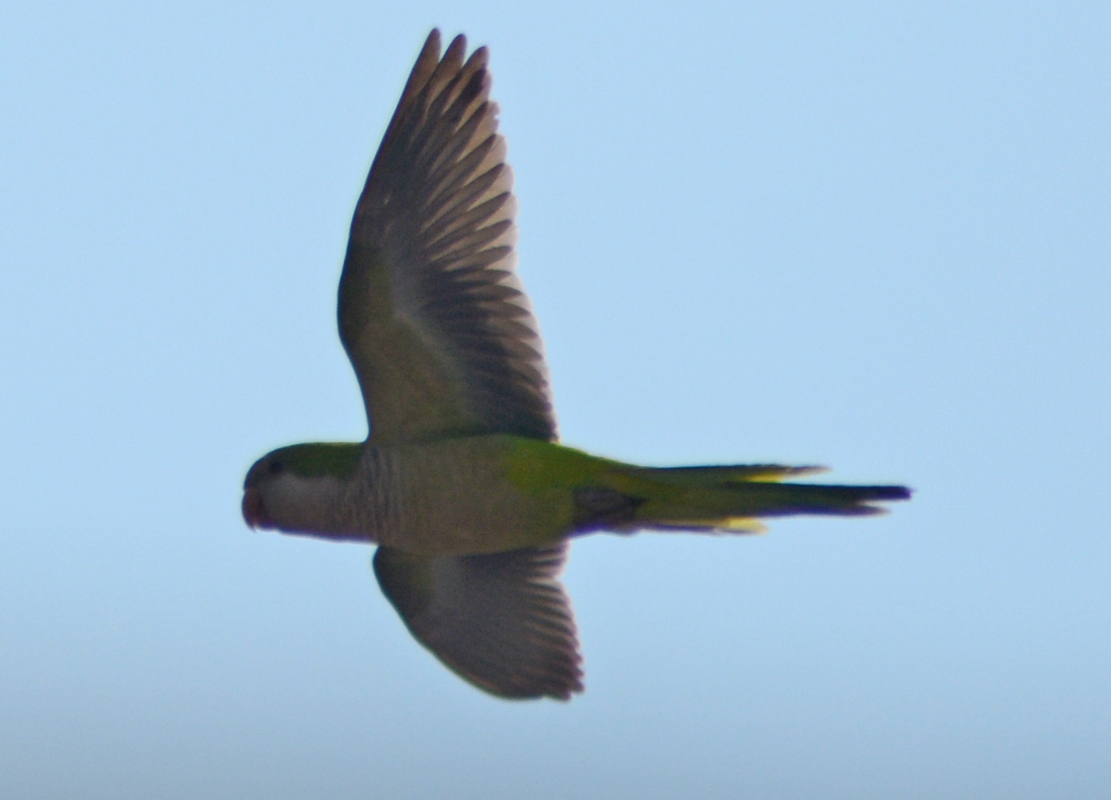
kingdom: Animalia
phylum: Chordata
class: Aves
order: Psittaciformes
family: Psittacidae
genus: Myiopsitta
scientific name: Myiopsitta monachus
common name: Monk parakeet
